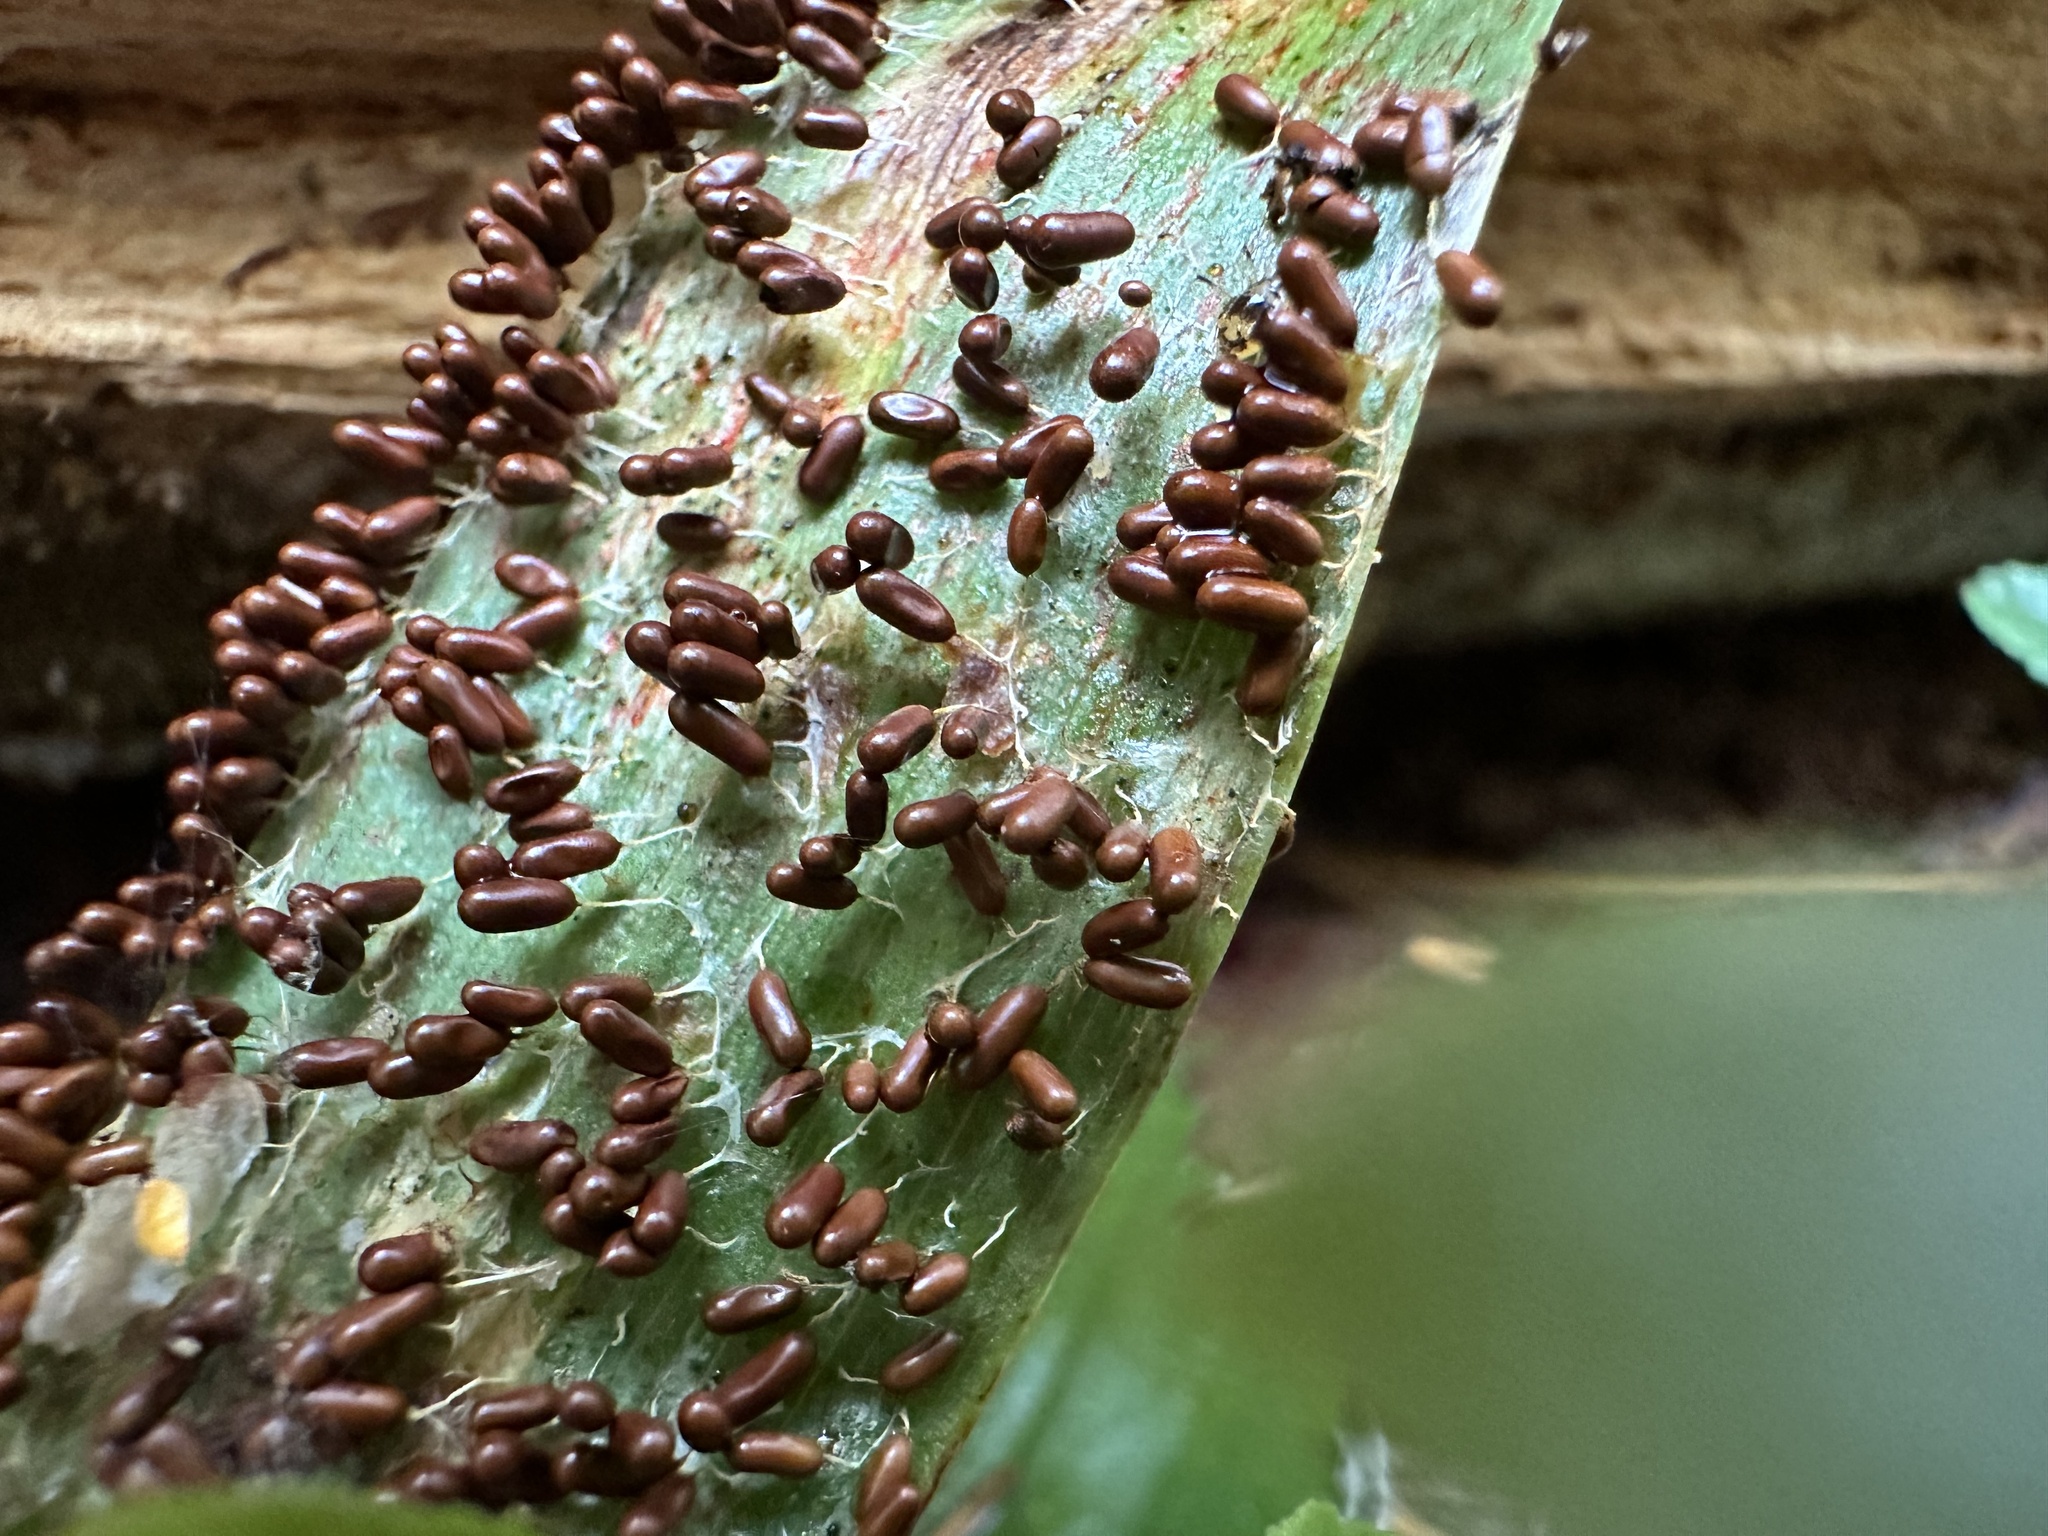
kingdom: Protozoa
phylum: Mycetozoa
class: Myxomycetes
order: Physarales
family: Physaraceae
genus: Leocarpus
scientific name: Leocarpus fragilis
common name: Insect-egg slime
